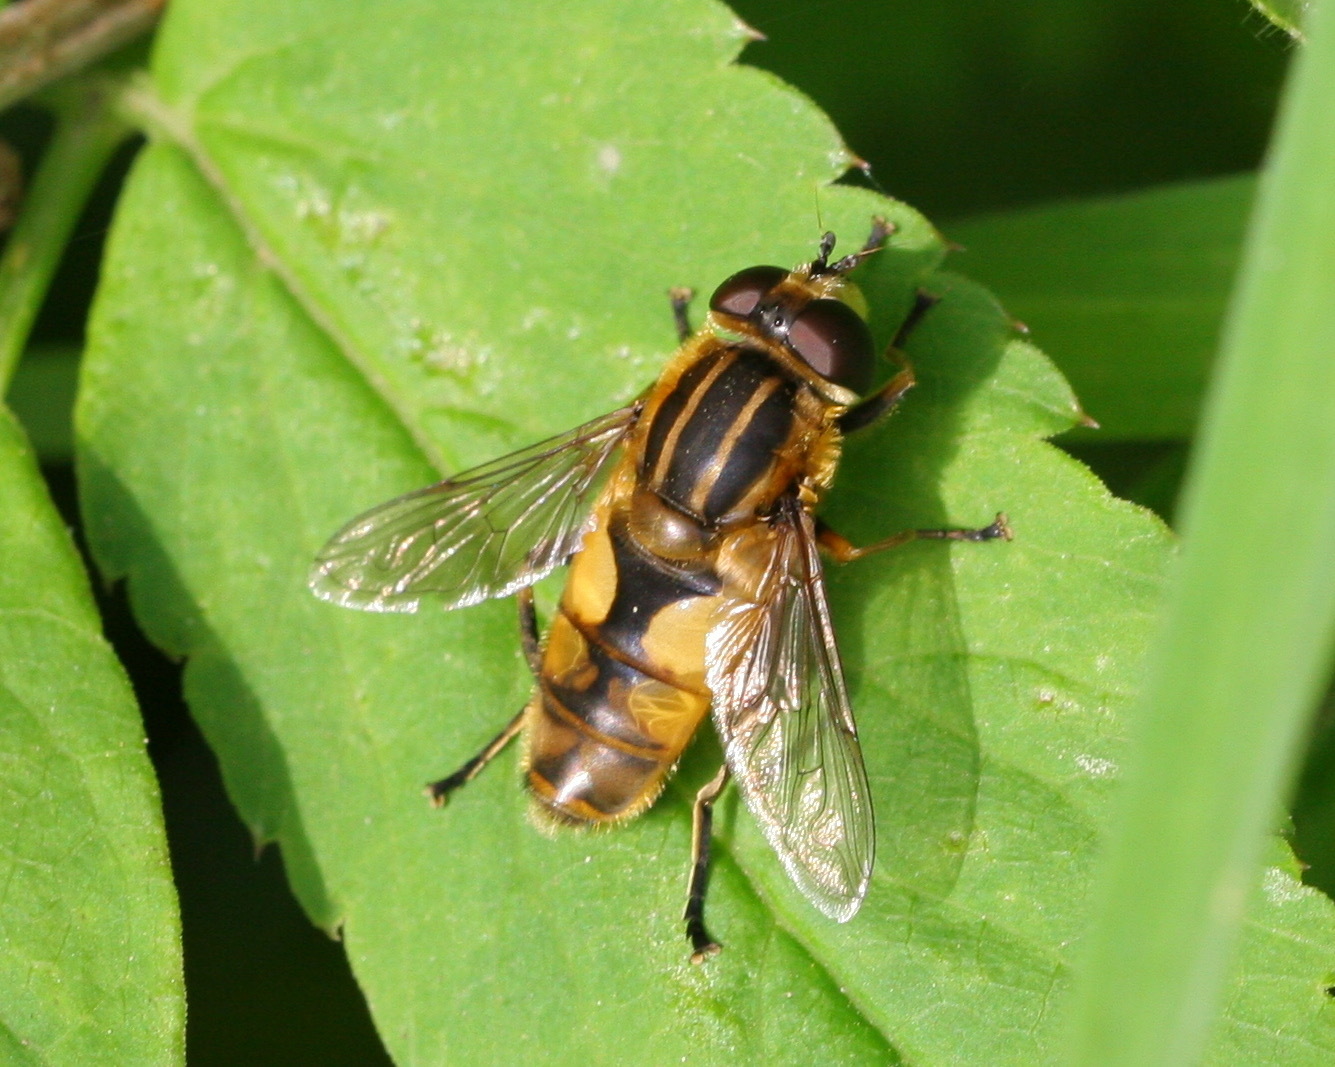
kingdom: Animalia
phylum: Arthropoda
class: Insecta
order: Diptera
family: Syrphidae
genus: Helophilus
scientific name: Helophilus hybridus
